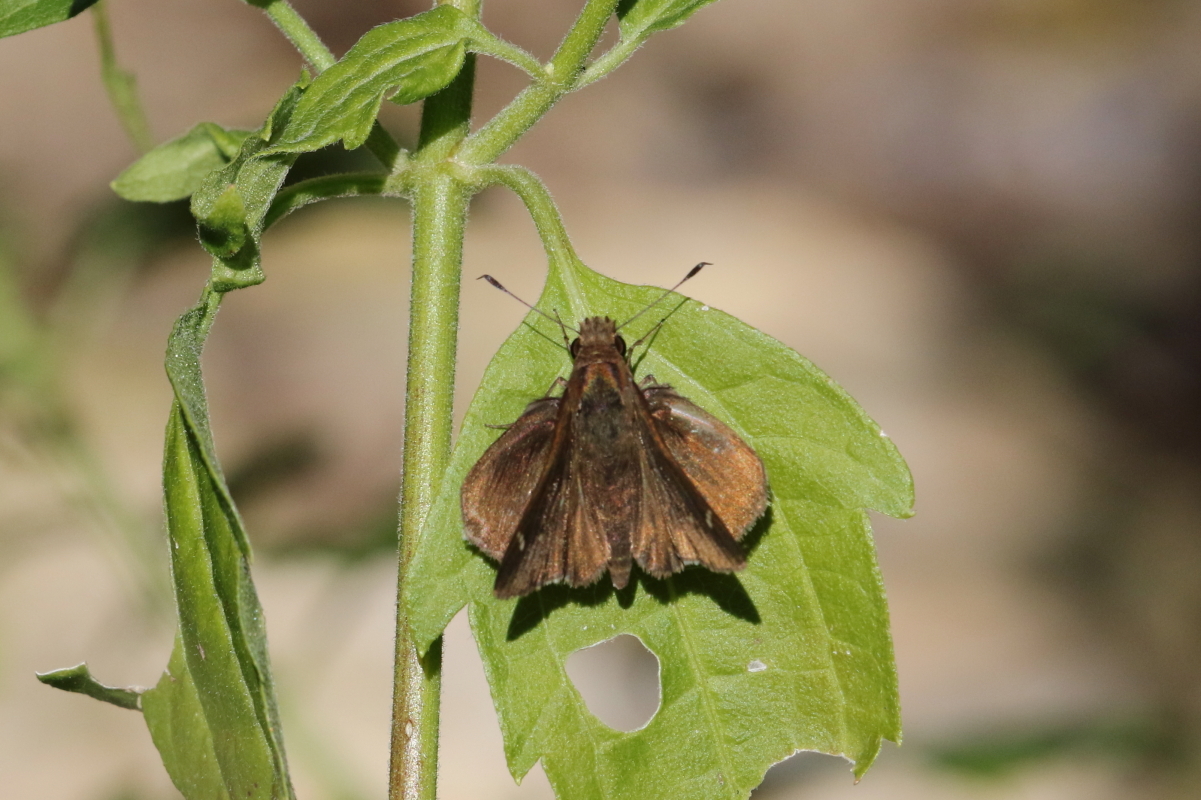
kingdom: Animalia
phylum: Arthropoda
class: Insecta
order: Lepidoptera
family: Hesperiidae
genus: Lerema
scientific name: Lerema accius
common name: Clouded skipper
